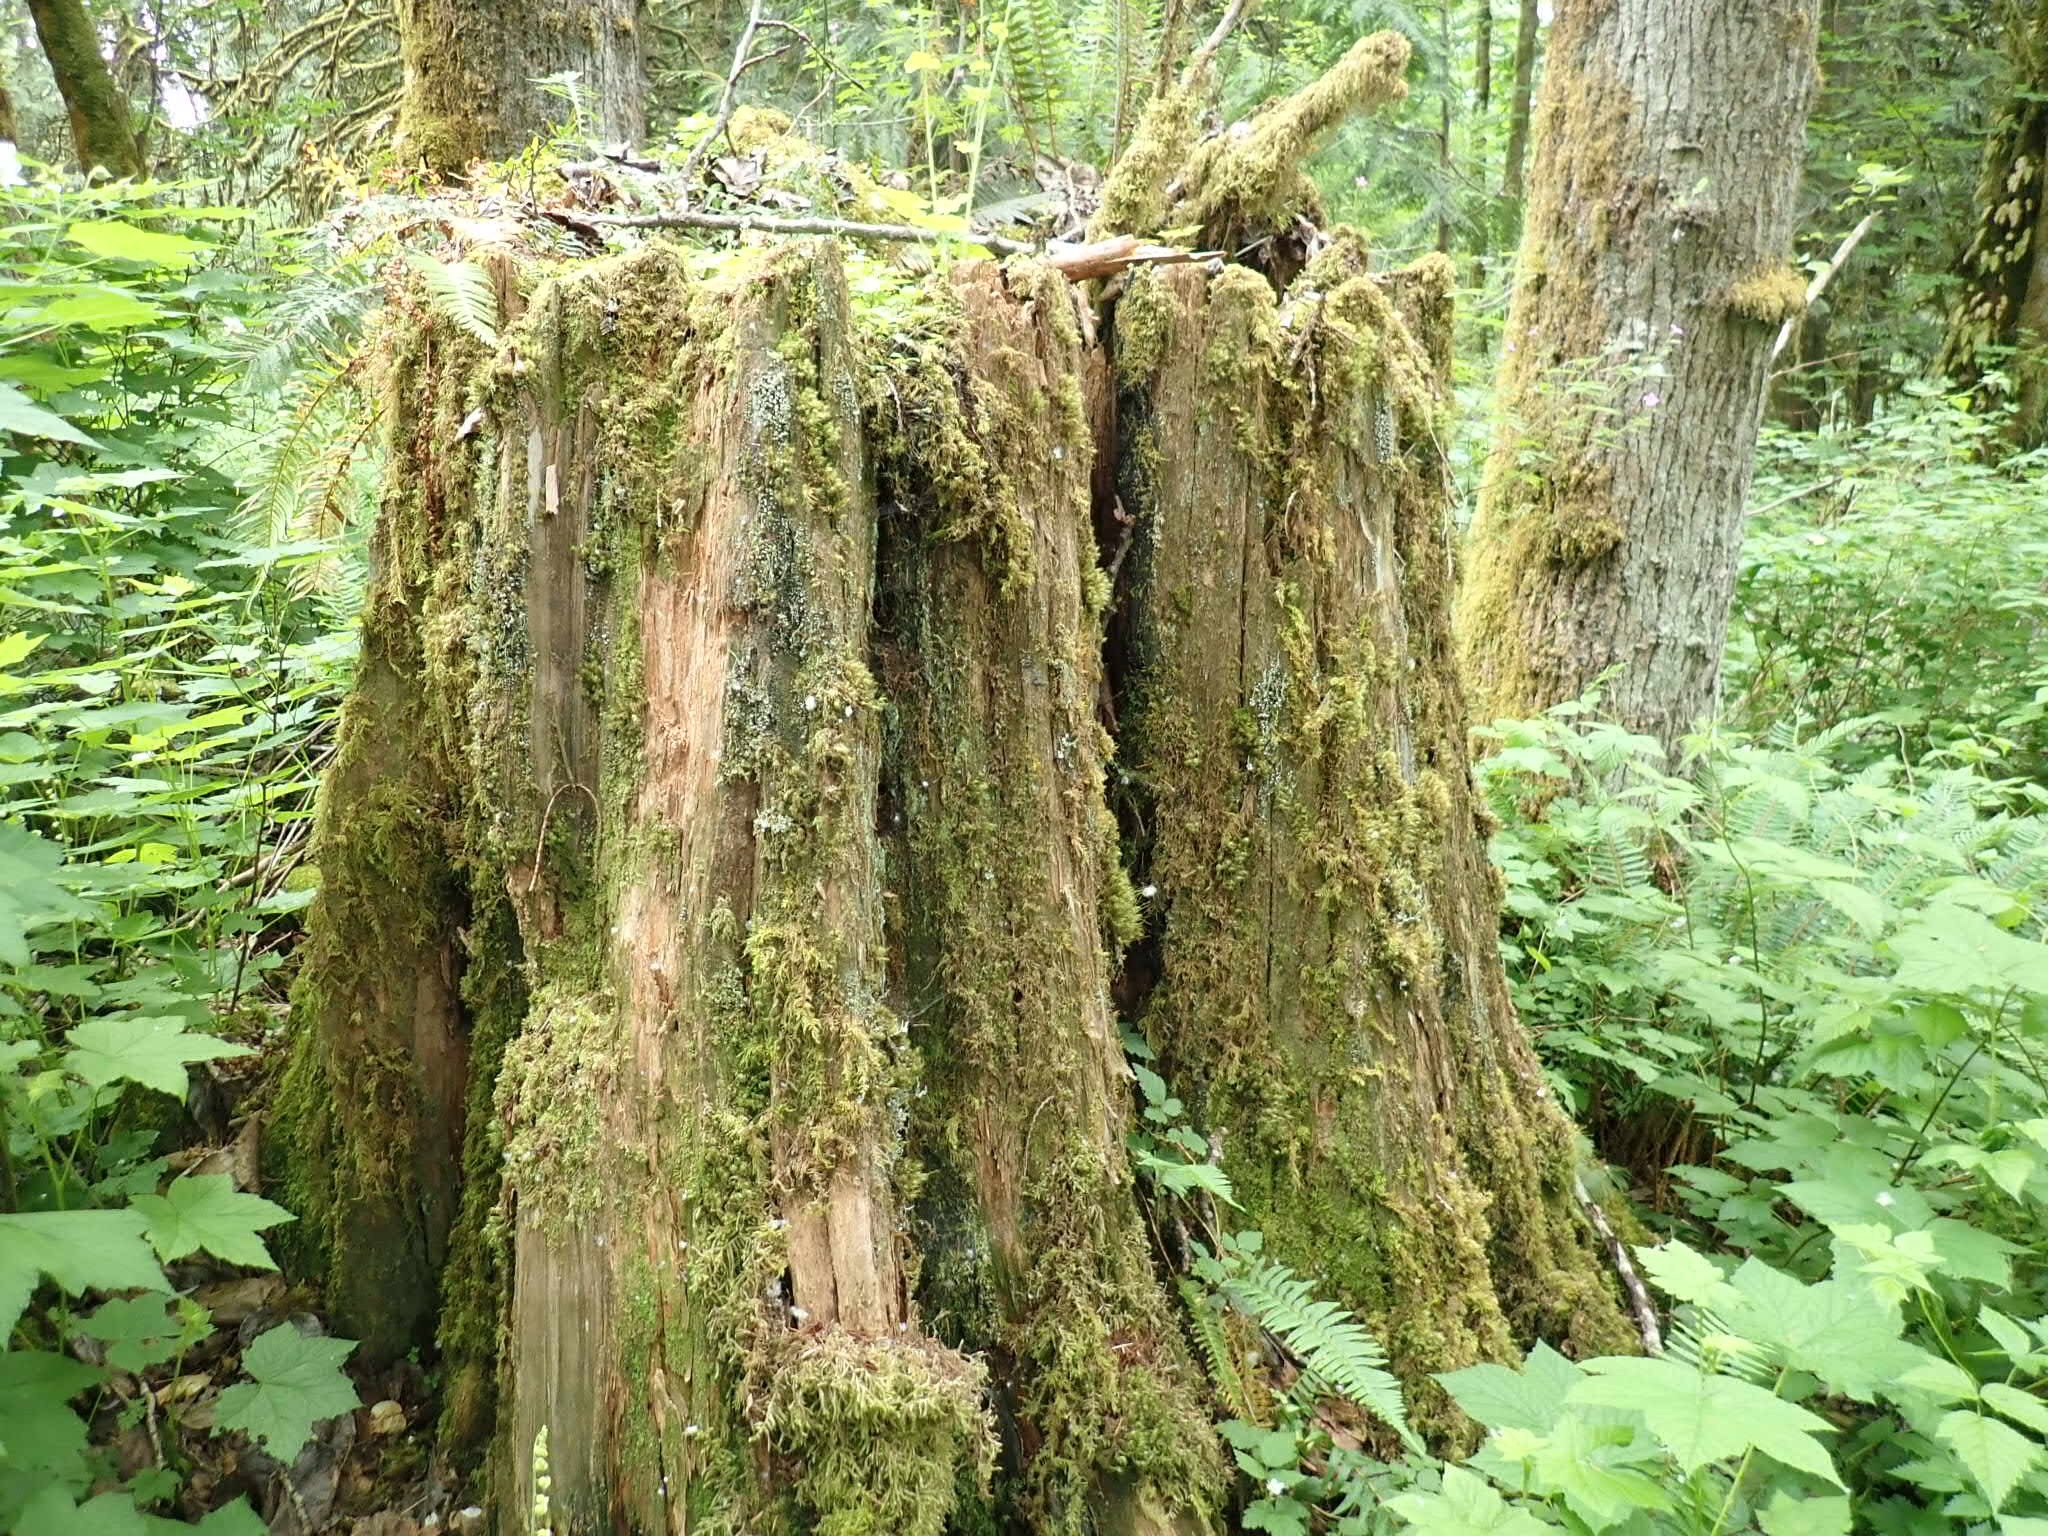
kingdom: Fungi
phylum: Ascomycota
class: Lecanoromycetes
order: Lecanorales
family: Cladoniaceae
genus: Cladonia
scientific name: Cladonia squamosa
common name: Dragon horn
